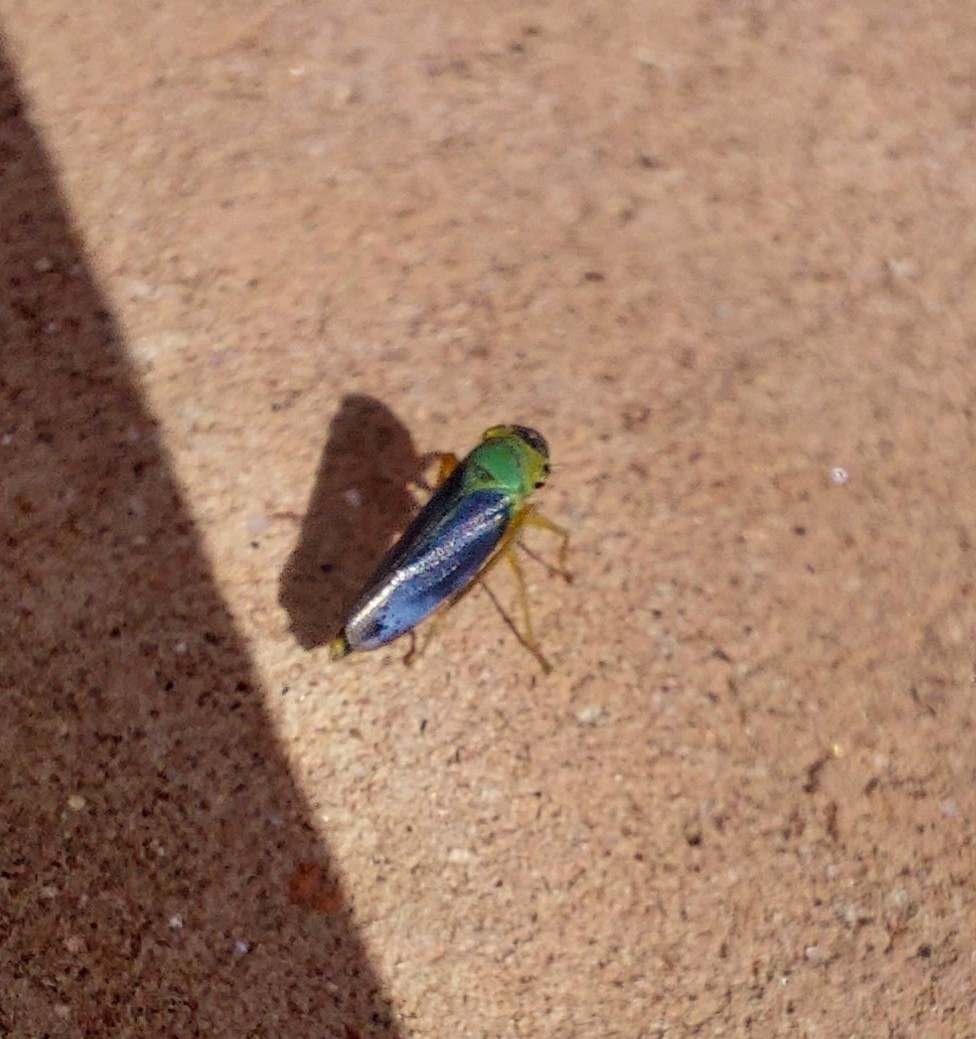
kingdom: Animalia
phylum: Arthropoda
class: Insecta
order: Hemiptera
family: Cicadellidae
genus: Cicadella
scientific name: Cicadella viridis
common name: Leafhopper
